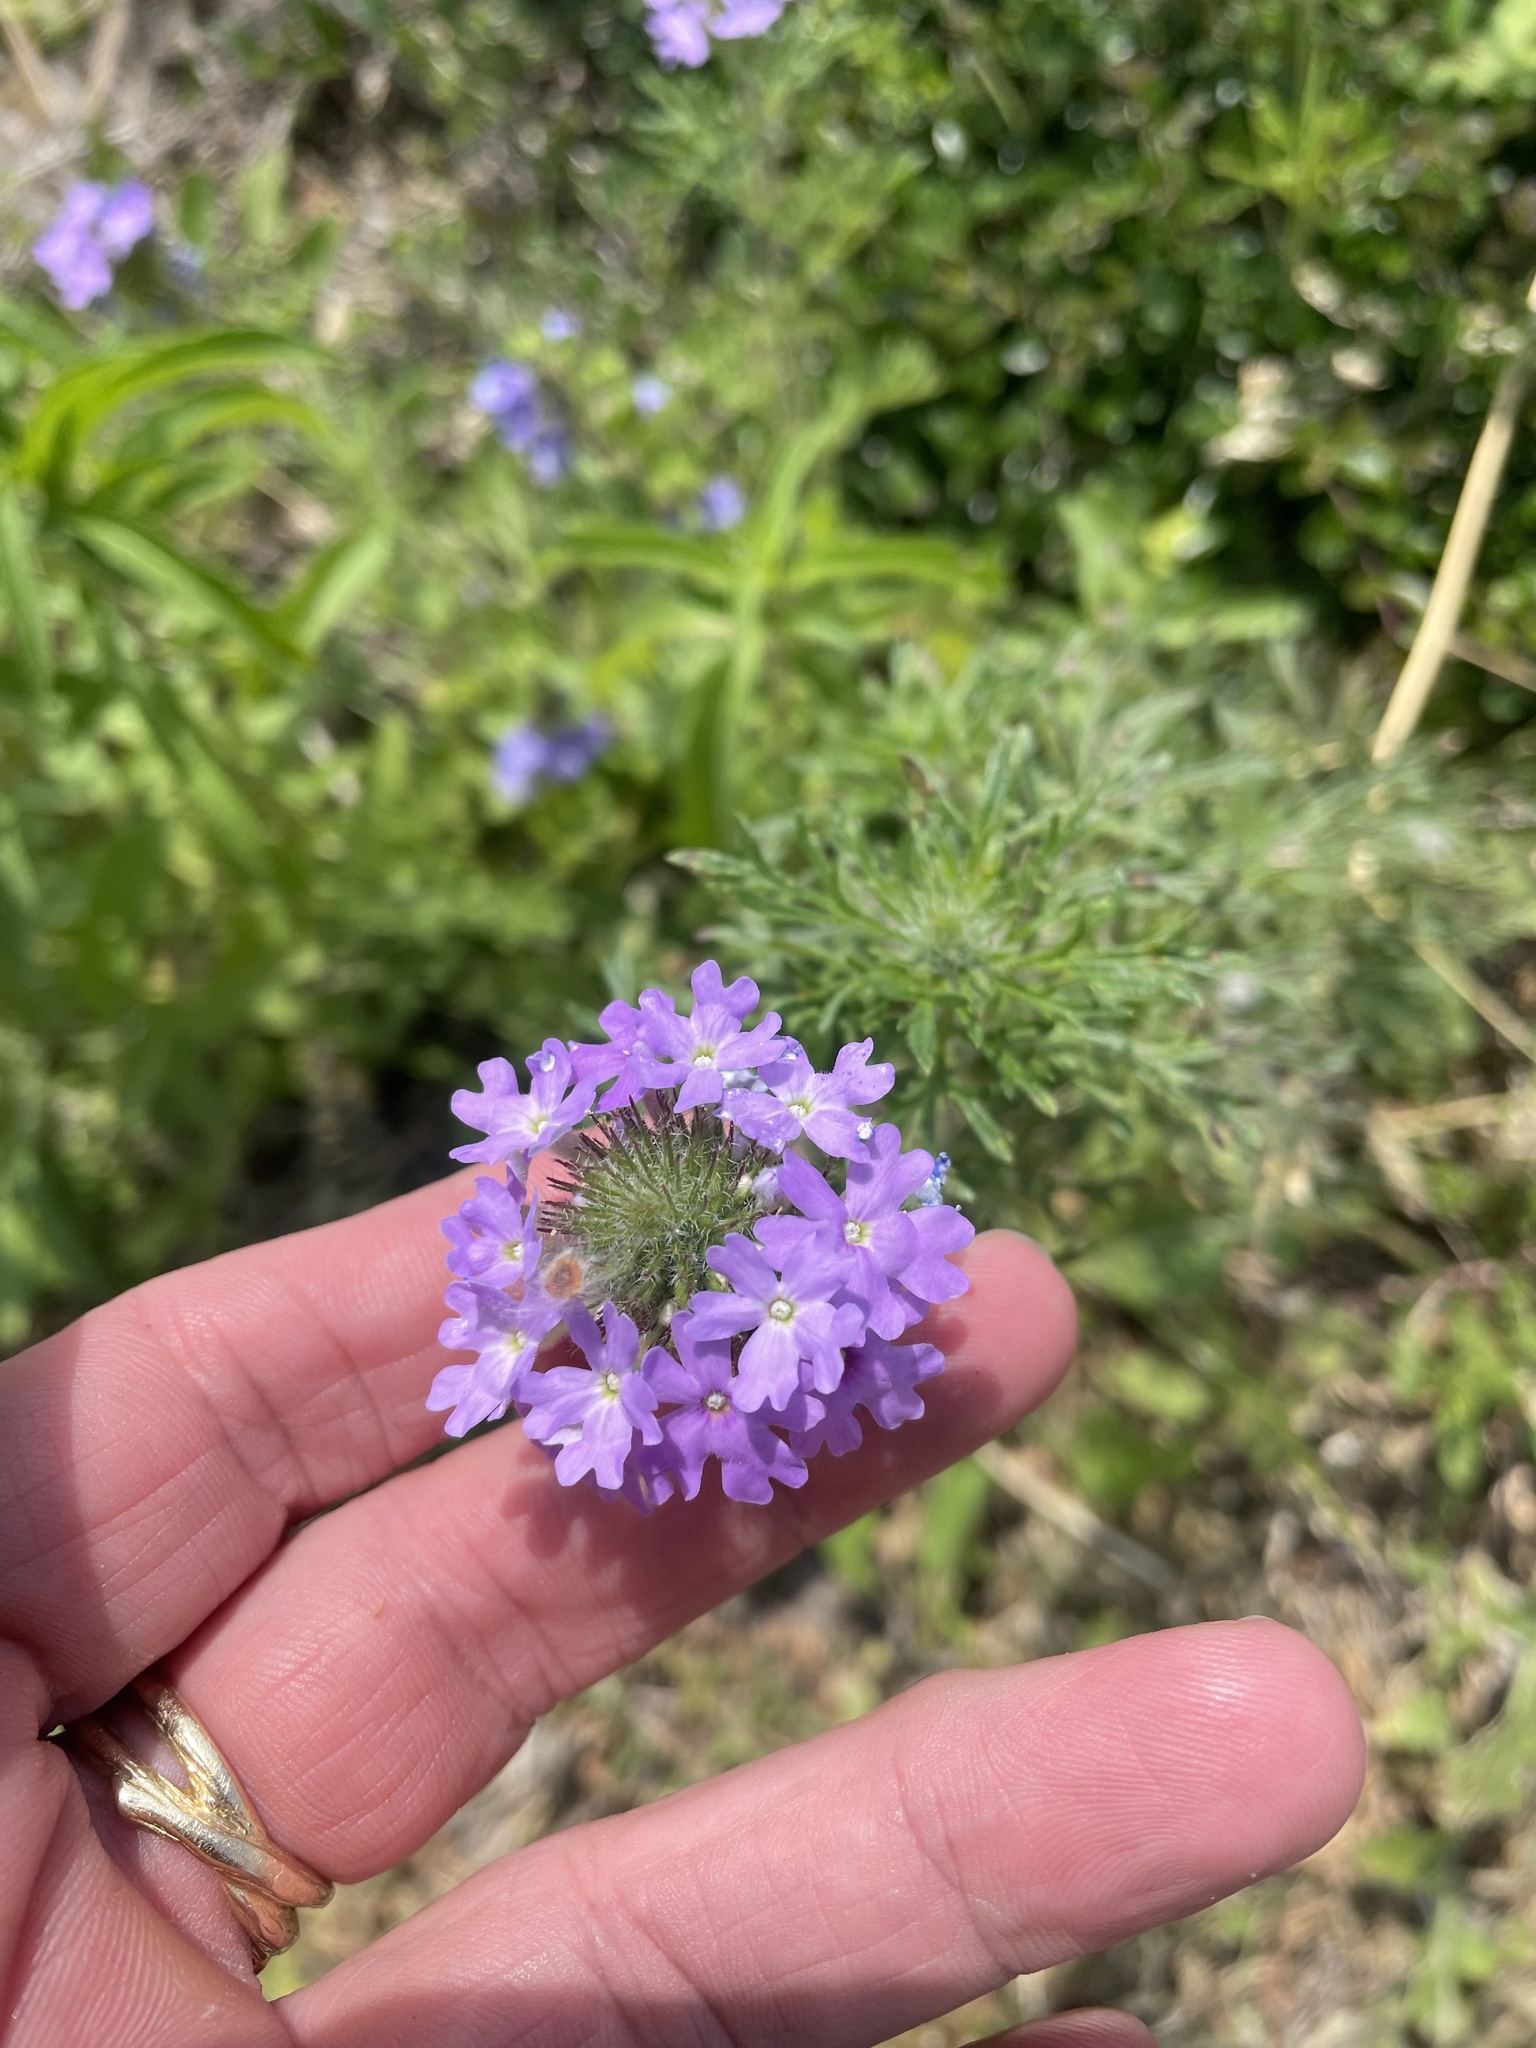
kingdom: Plantae
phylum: Tracheophyta
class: Magnoliopsida
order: Lamiales
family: Verbenaceae
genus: Verbena
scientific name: Verbena bipinnatifida
